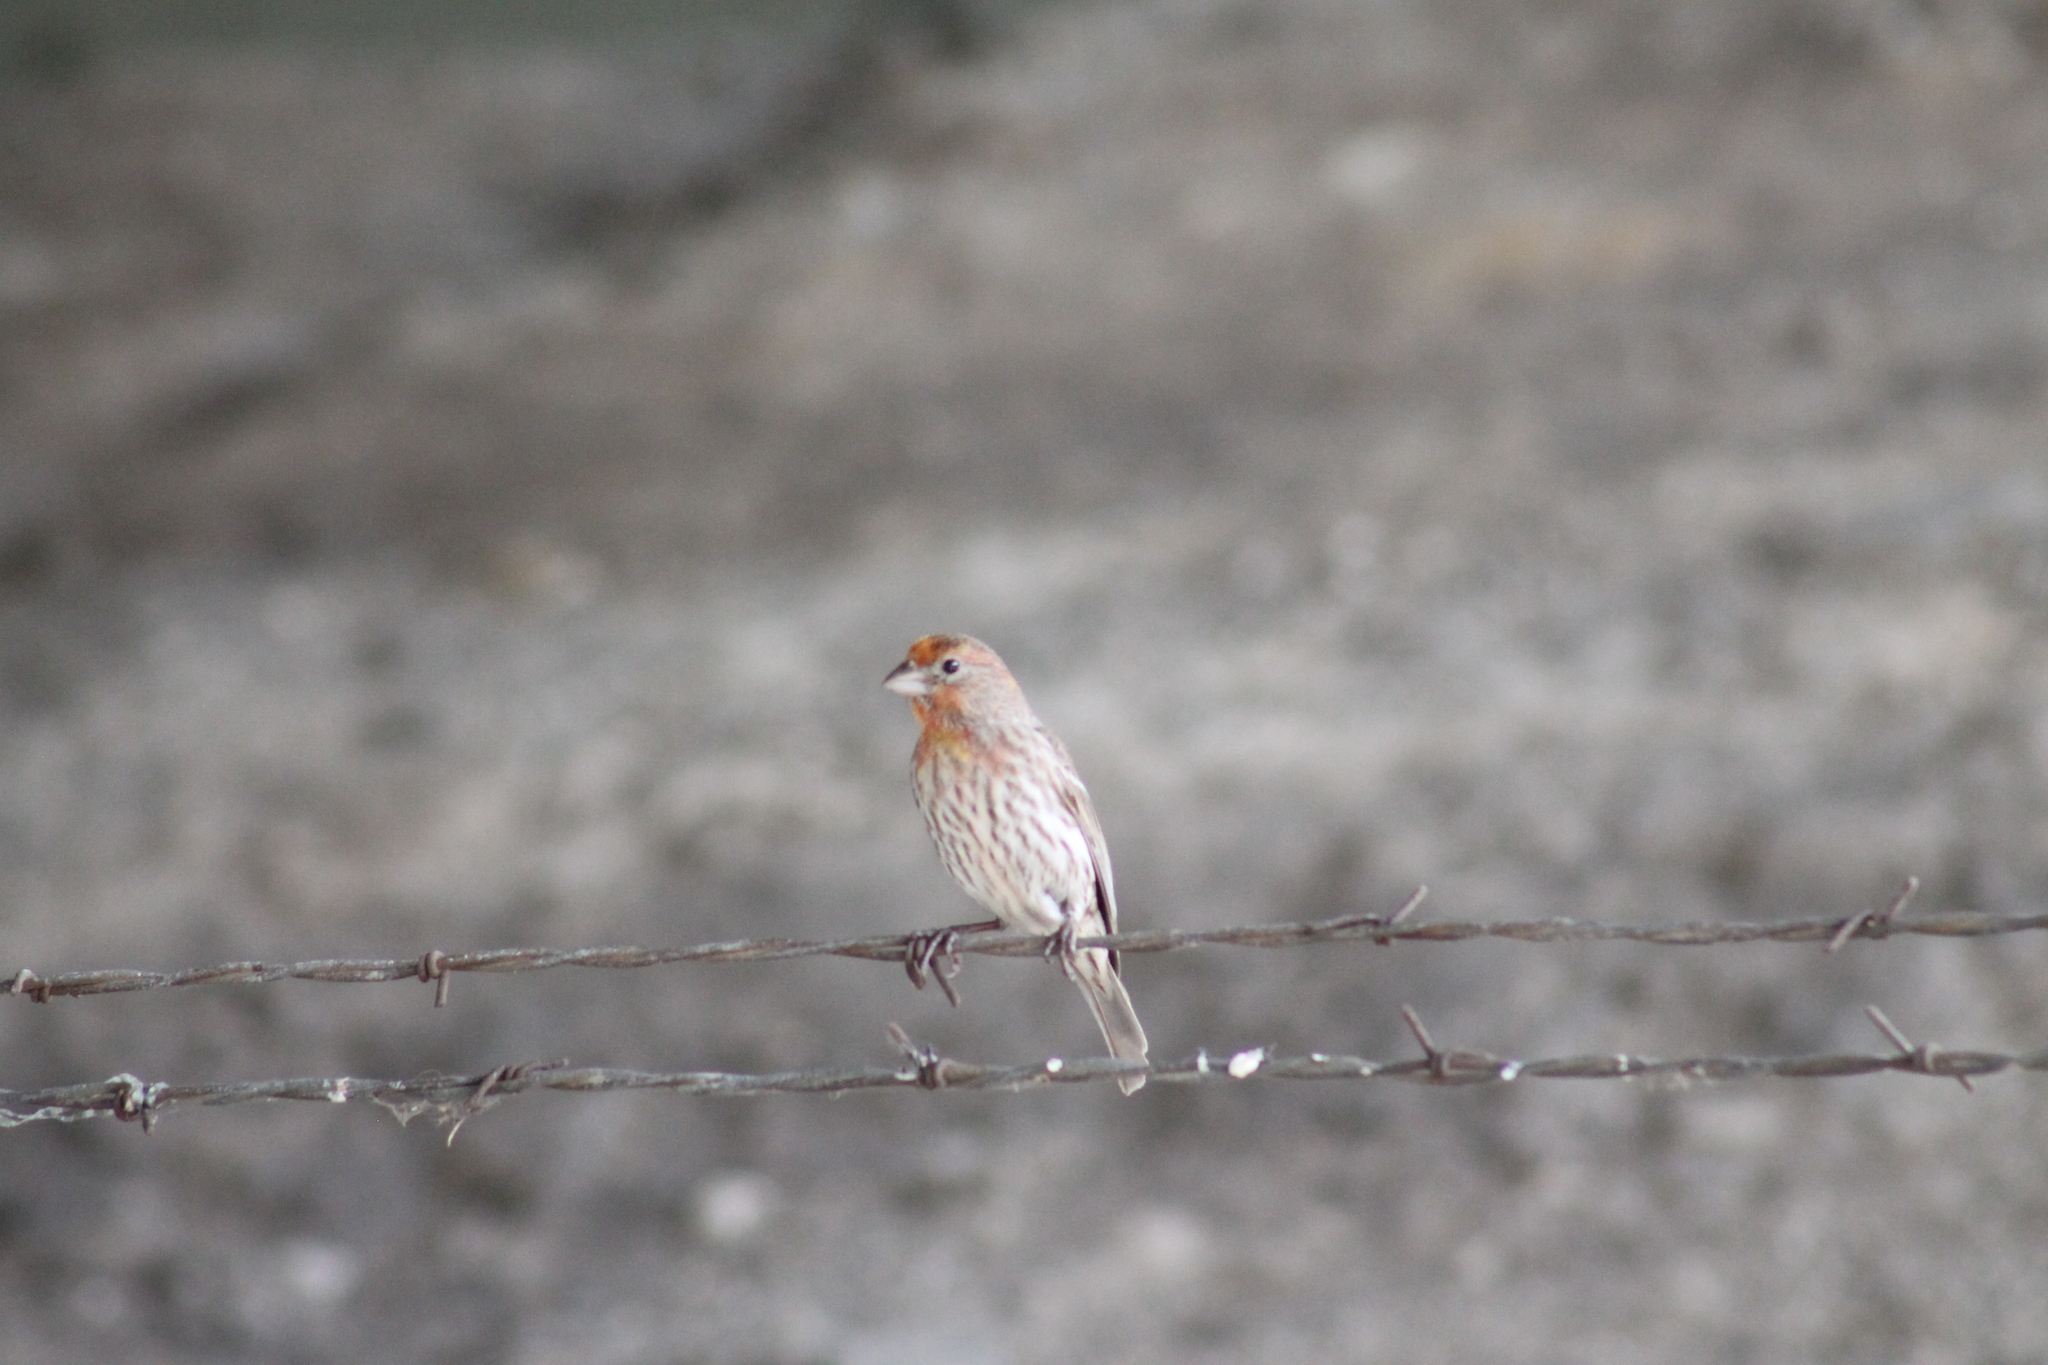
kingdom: Animalia
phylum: Chordata
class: Aves
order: Passeriformes
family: Fringillidae
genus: Haemorhous
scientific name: Haemorhous mexicanus
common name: House finch
